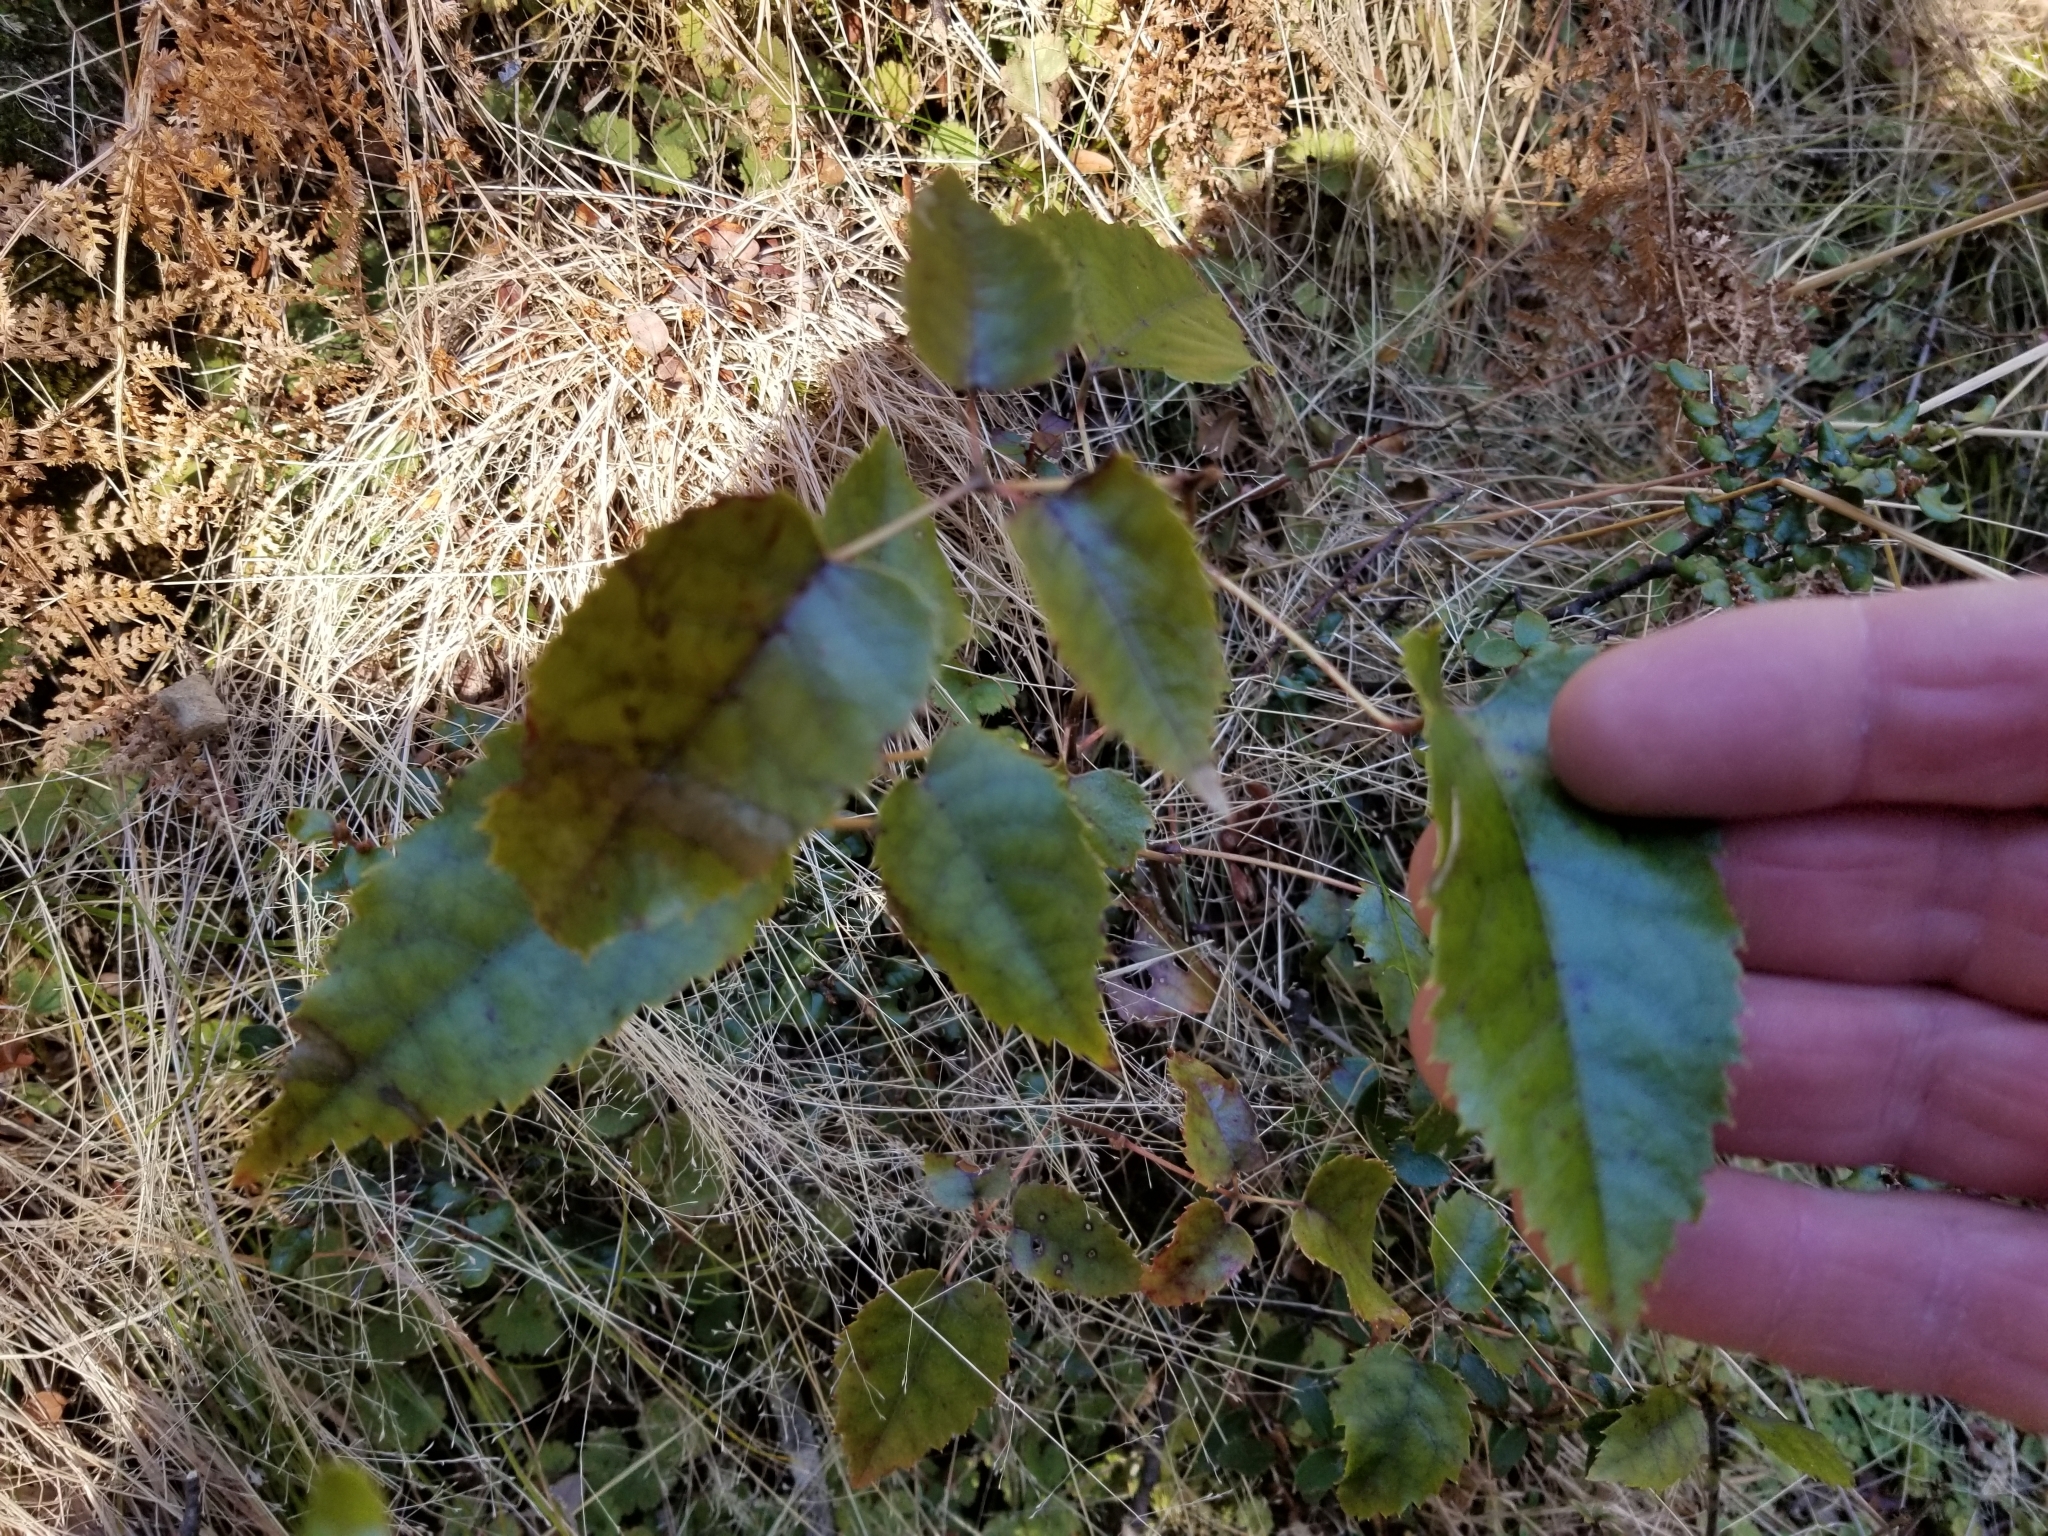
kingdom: Plantae
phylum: Tracheophyta
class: Magnoliopsida
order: Rosales
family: Rosaceae
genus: Rubus
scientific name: Rubus cissoides
